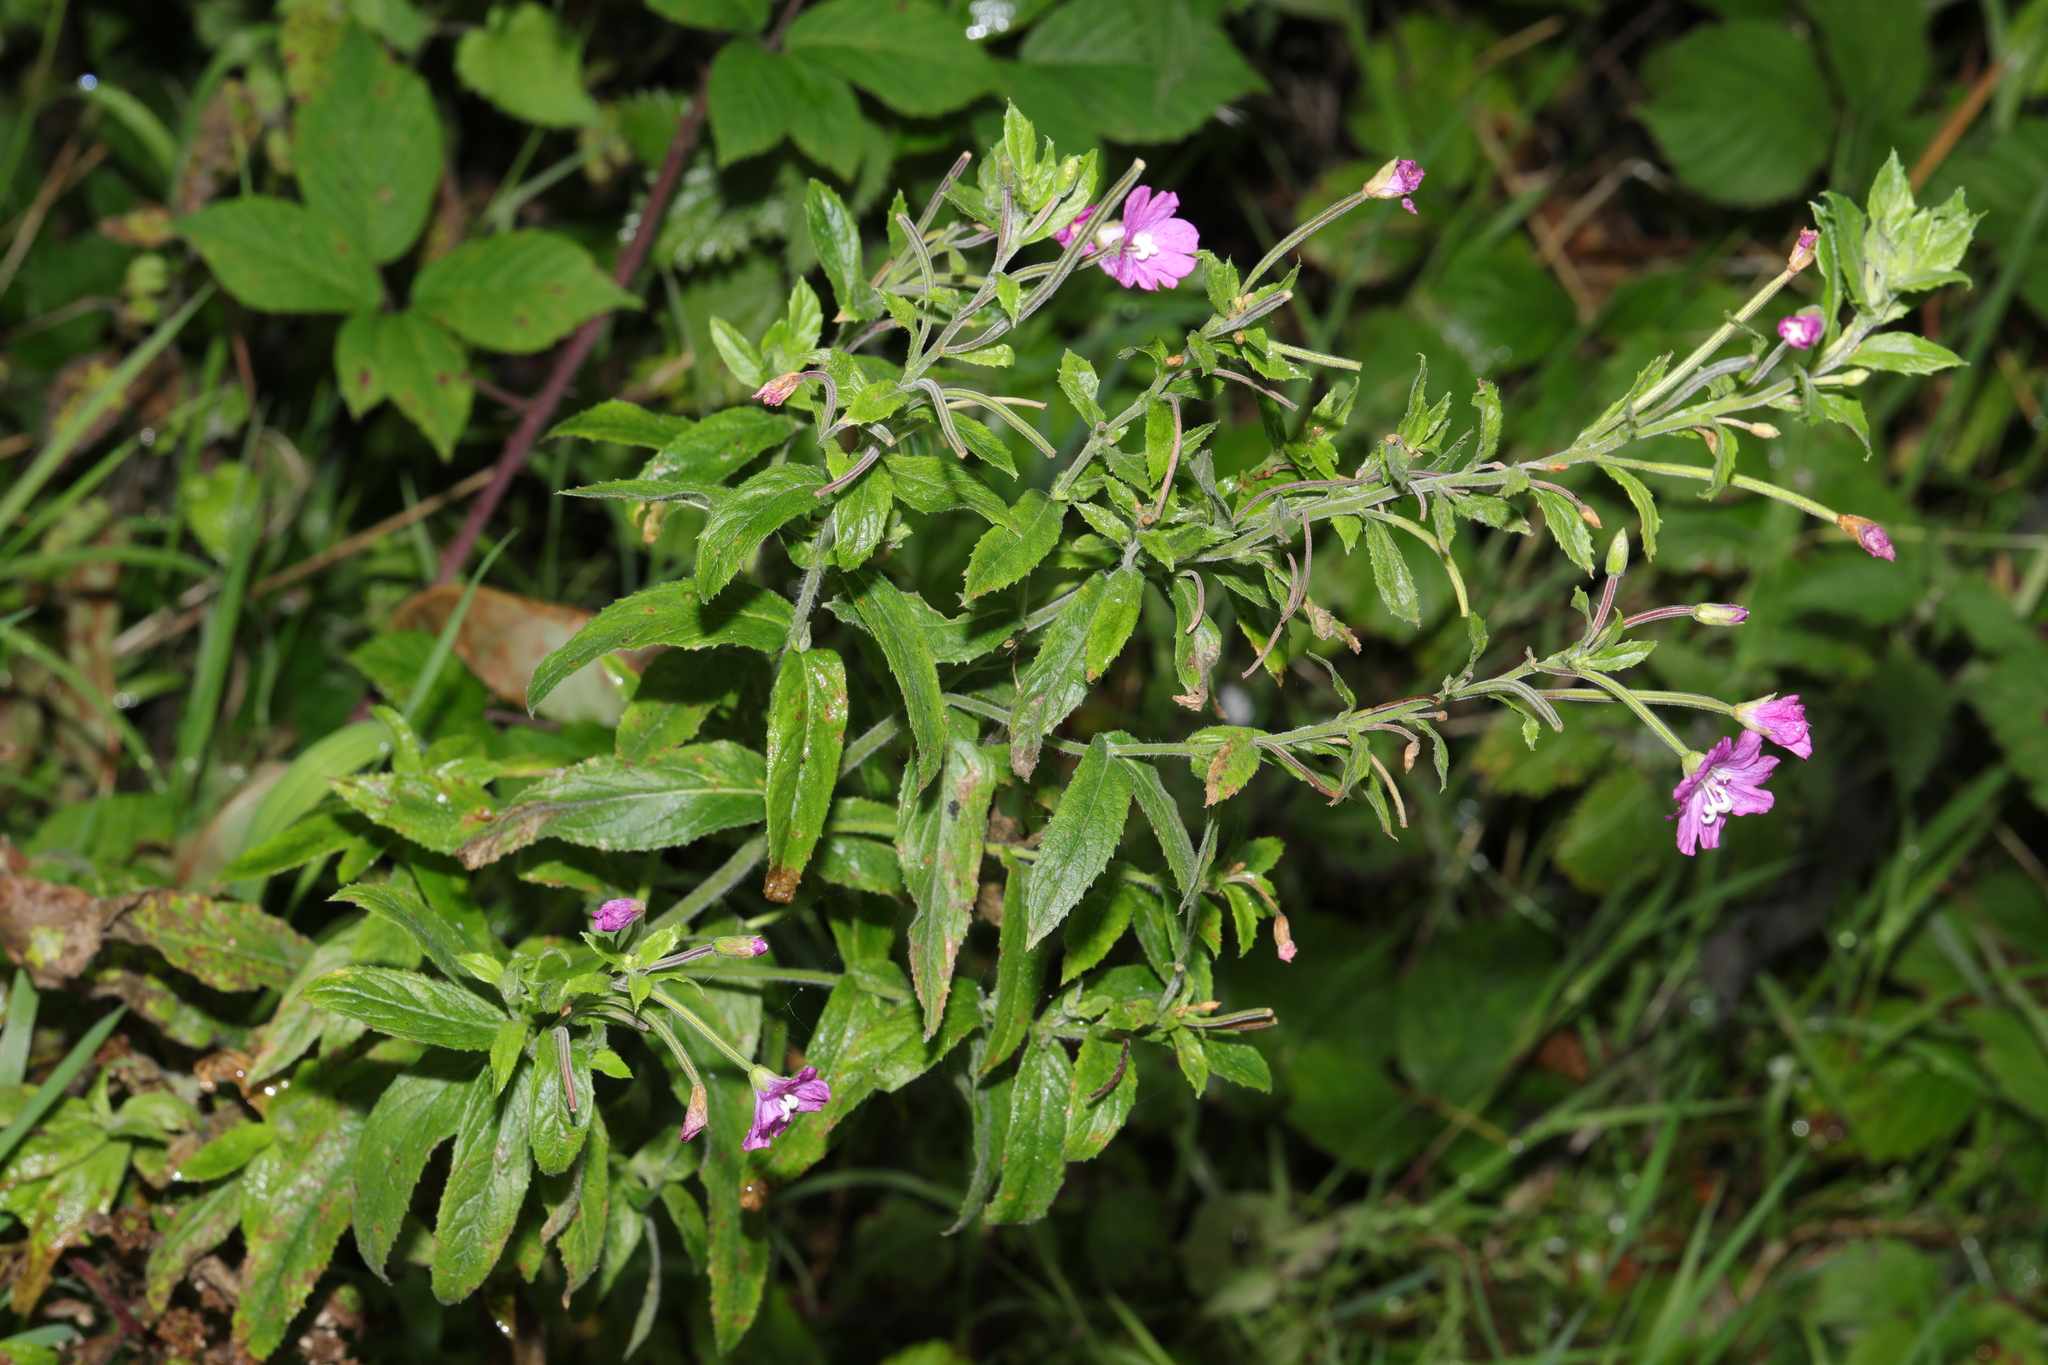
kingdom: Plantae
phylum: Tracheophyta
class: Magnoliopsida
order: Myrtales
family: Onagraceae
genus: Epilobium
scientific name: Epilobium hirsutum
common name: Great willowherb
